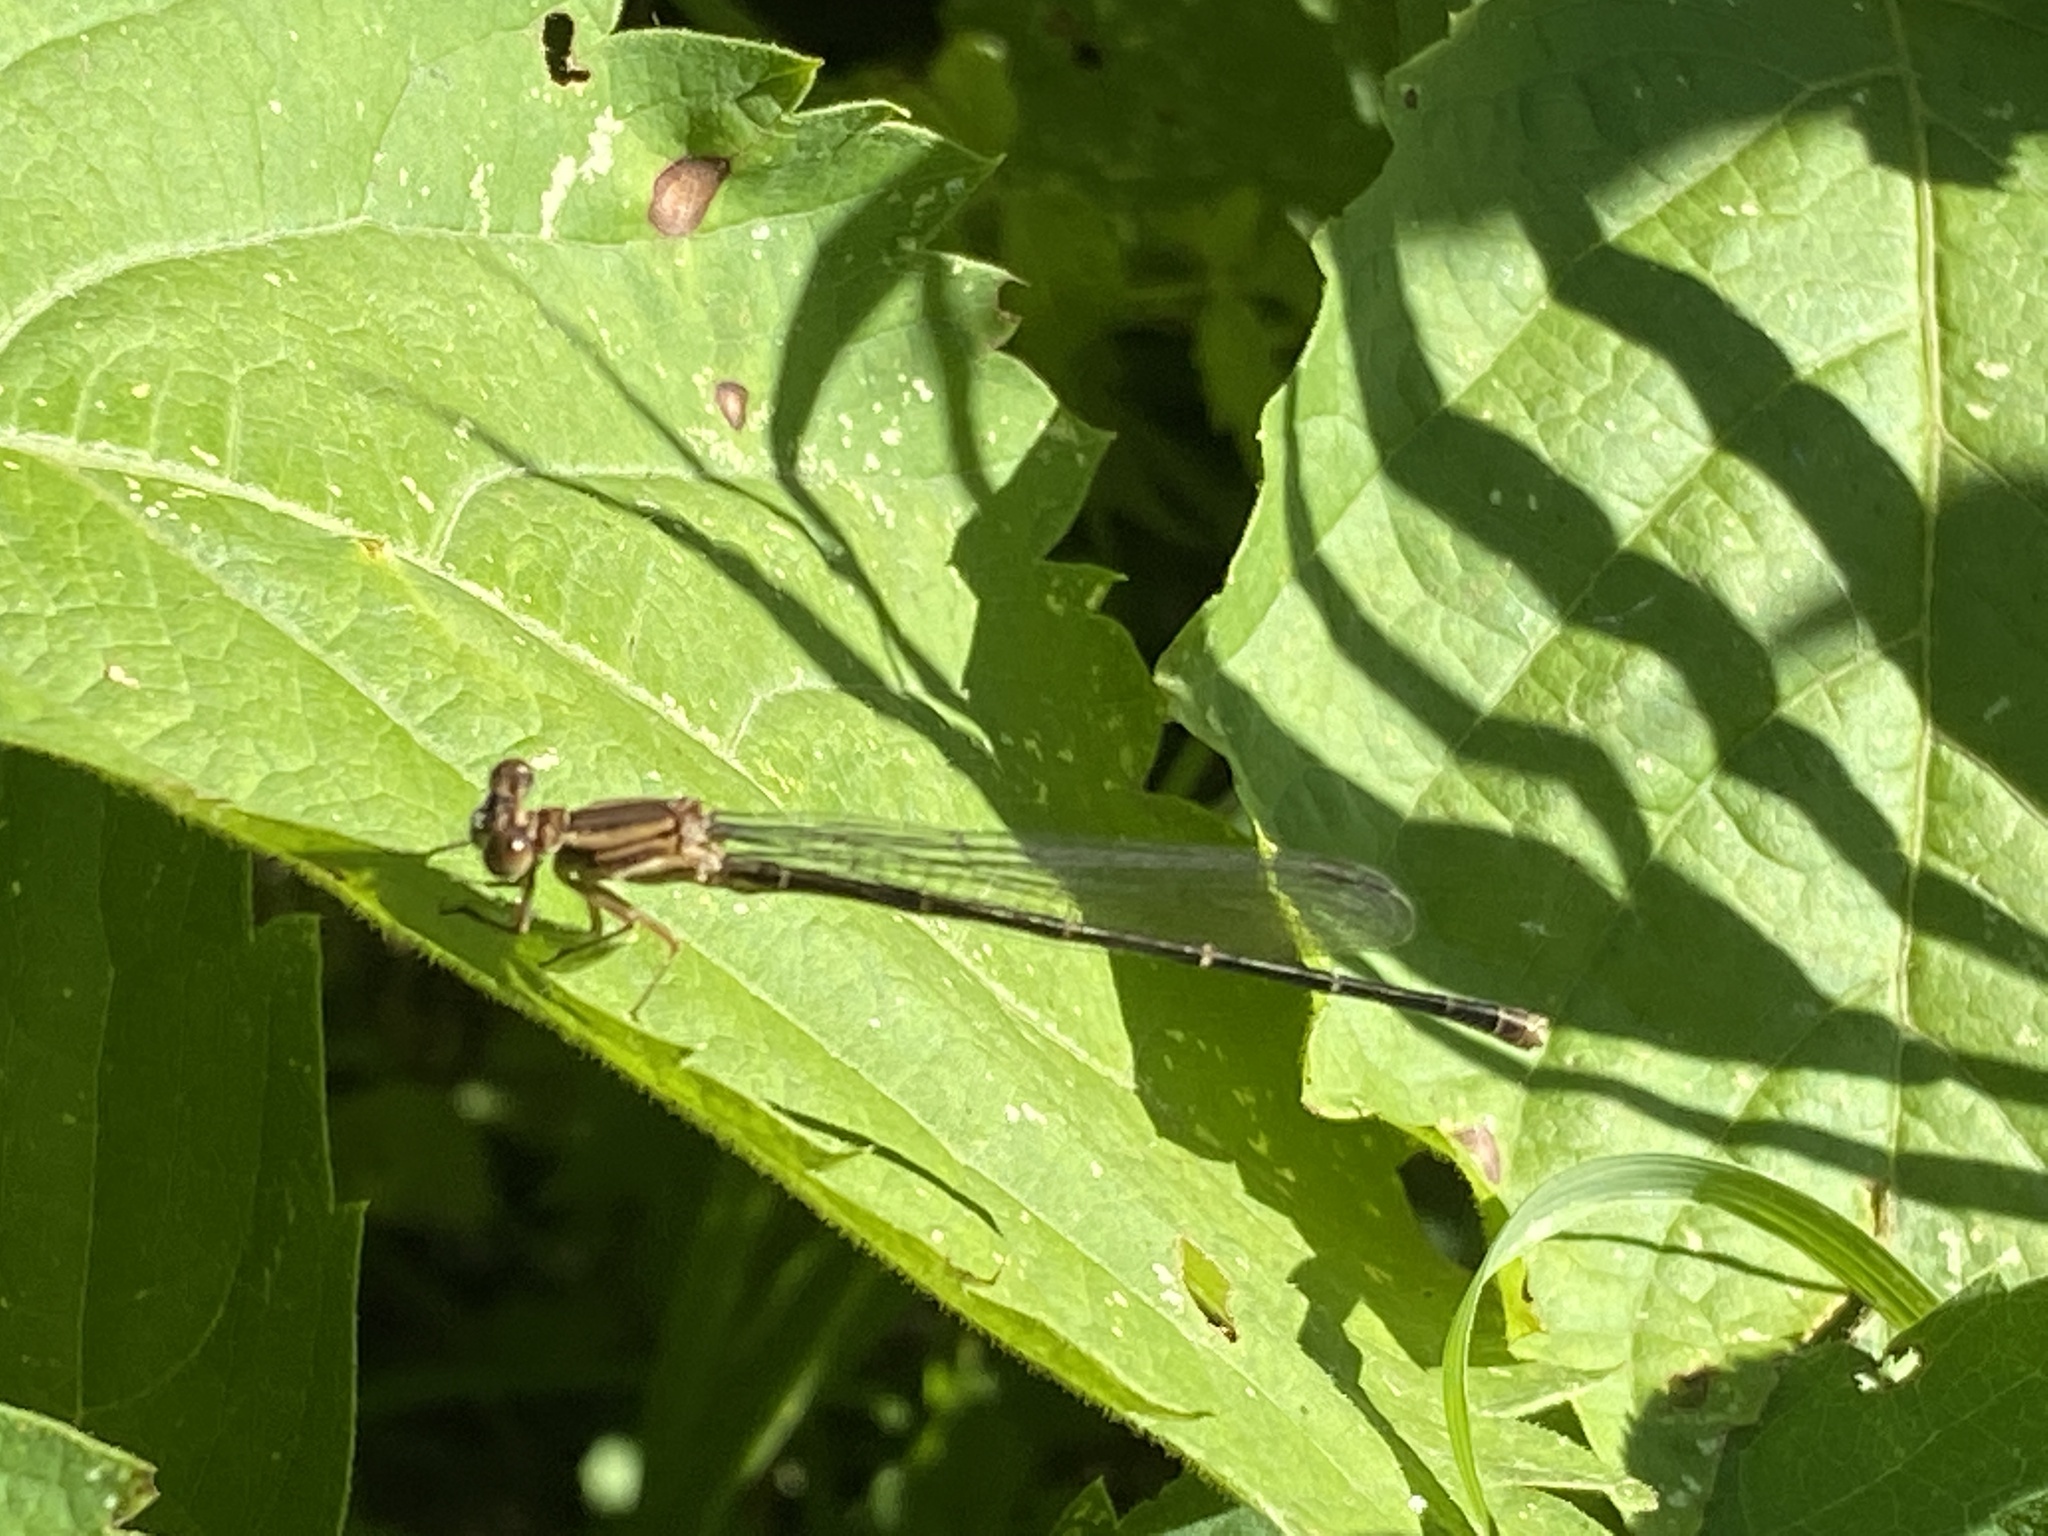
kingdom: Animalia
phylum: Arthropoda
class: Insecta
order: Odonata
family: Coenagrionidae
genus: Argia
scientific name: Argia apicalis
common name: Blue-fronted dancer
